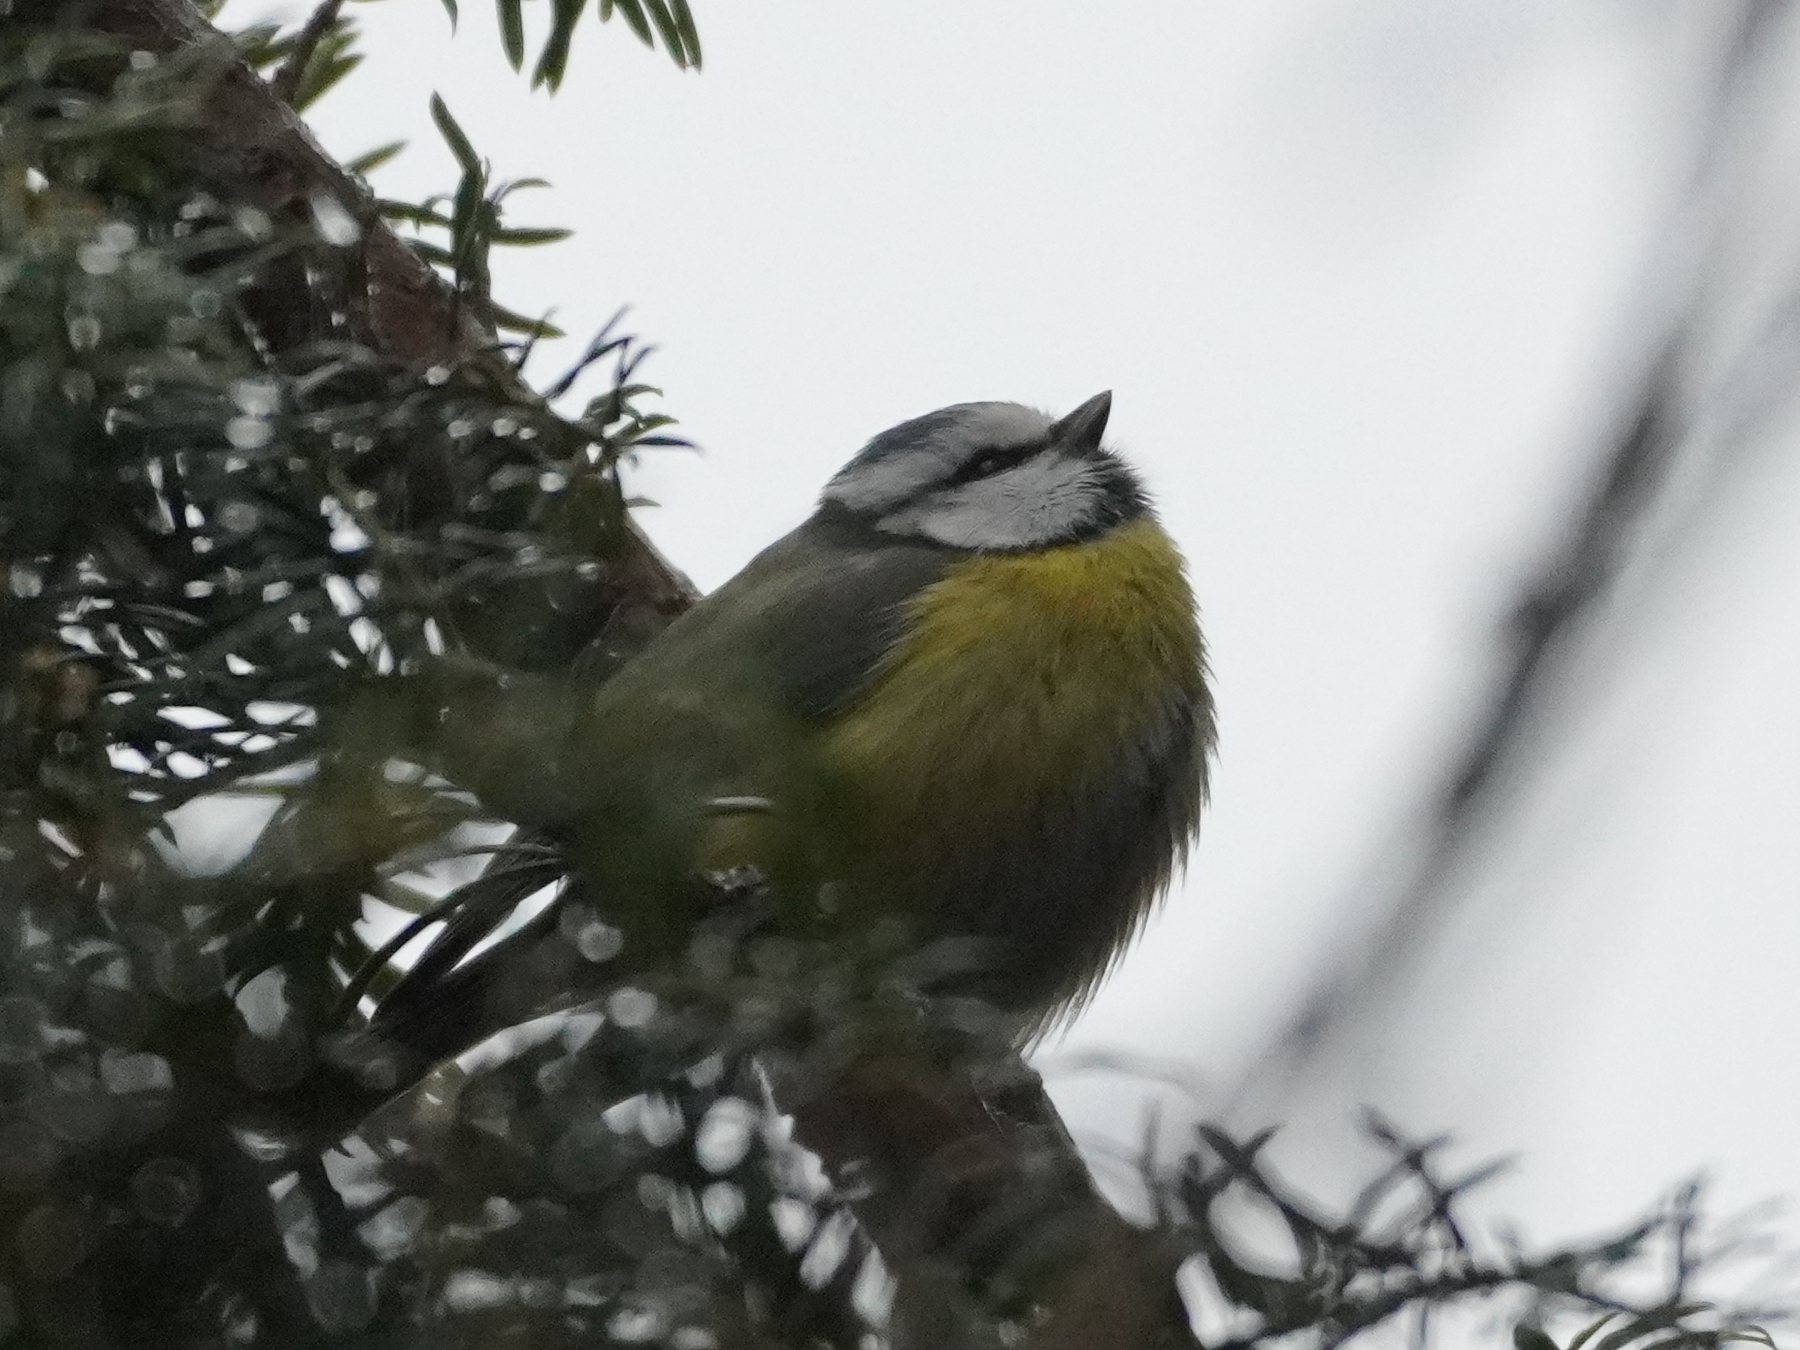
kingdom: Animalia
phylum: Chordata
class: Aves
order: Passeriformes
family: Paridae
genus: Cyanistes
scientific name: Cyanistes caeruleus
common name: Eurasian blue tit
